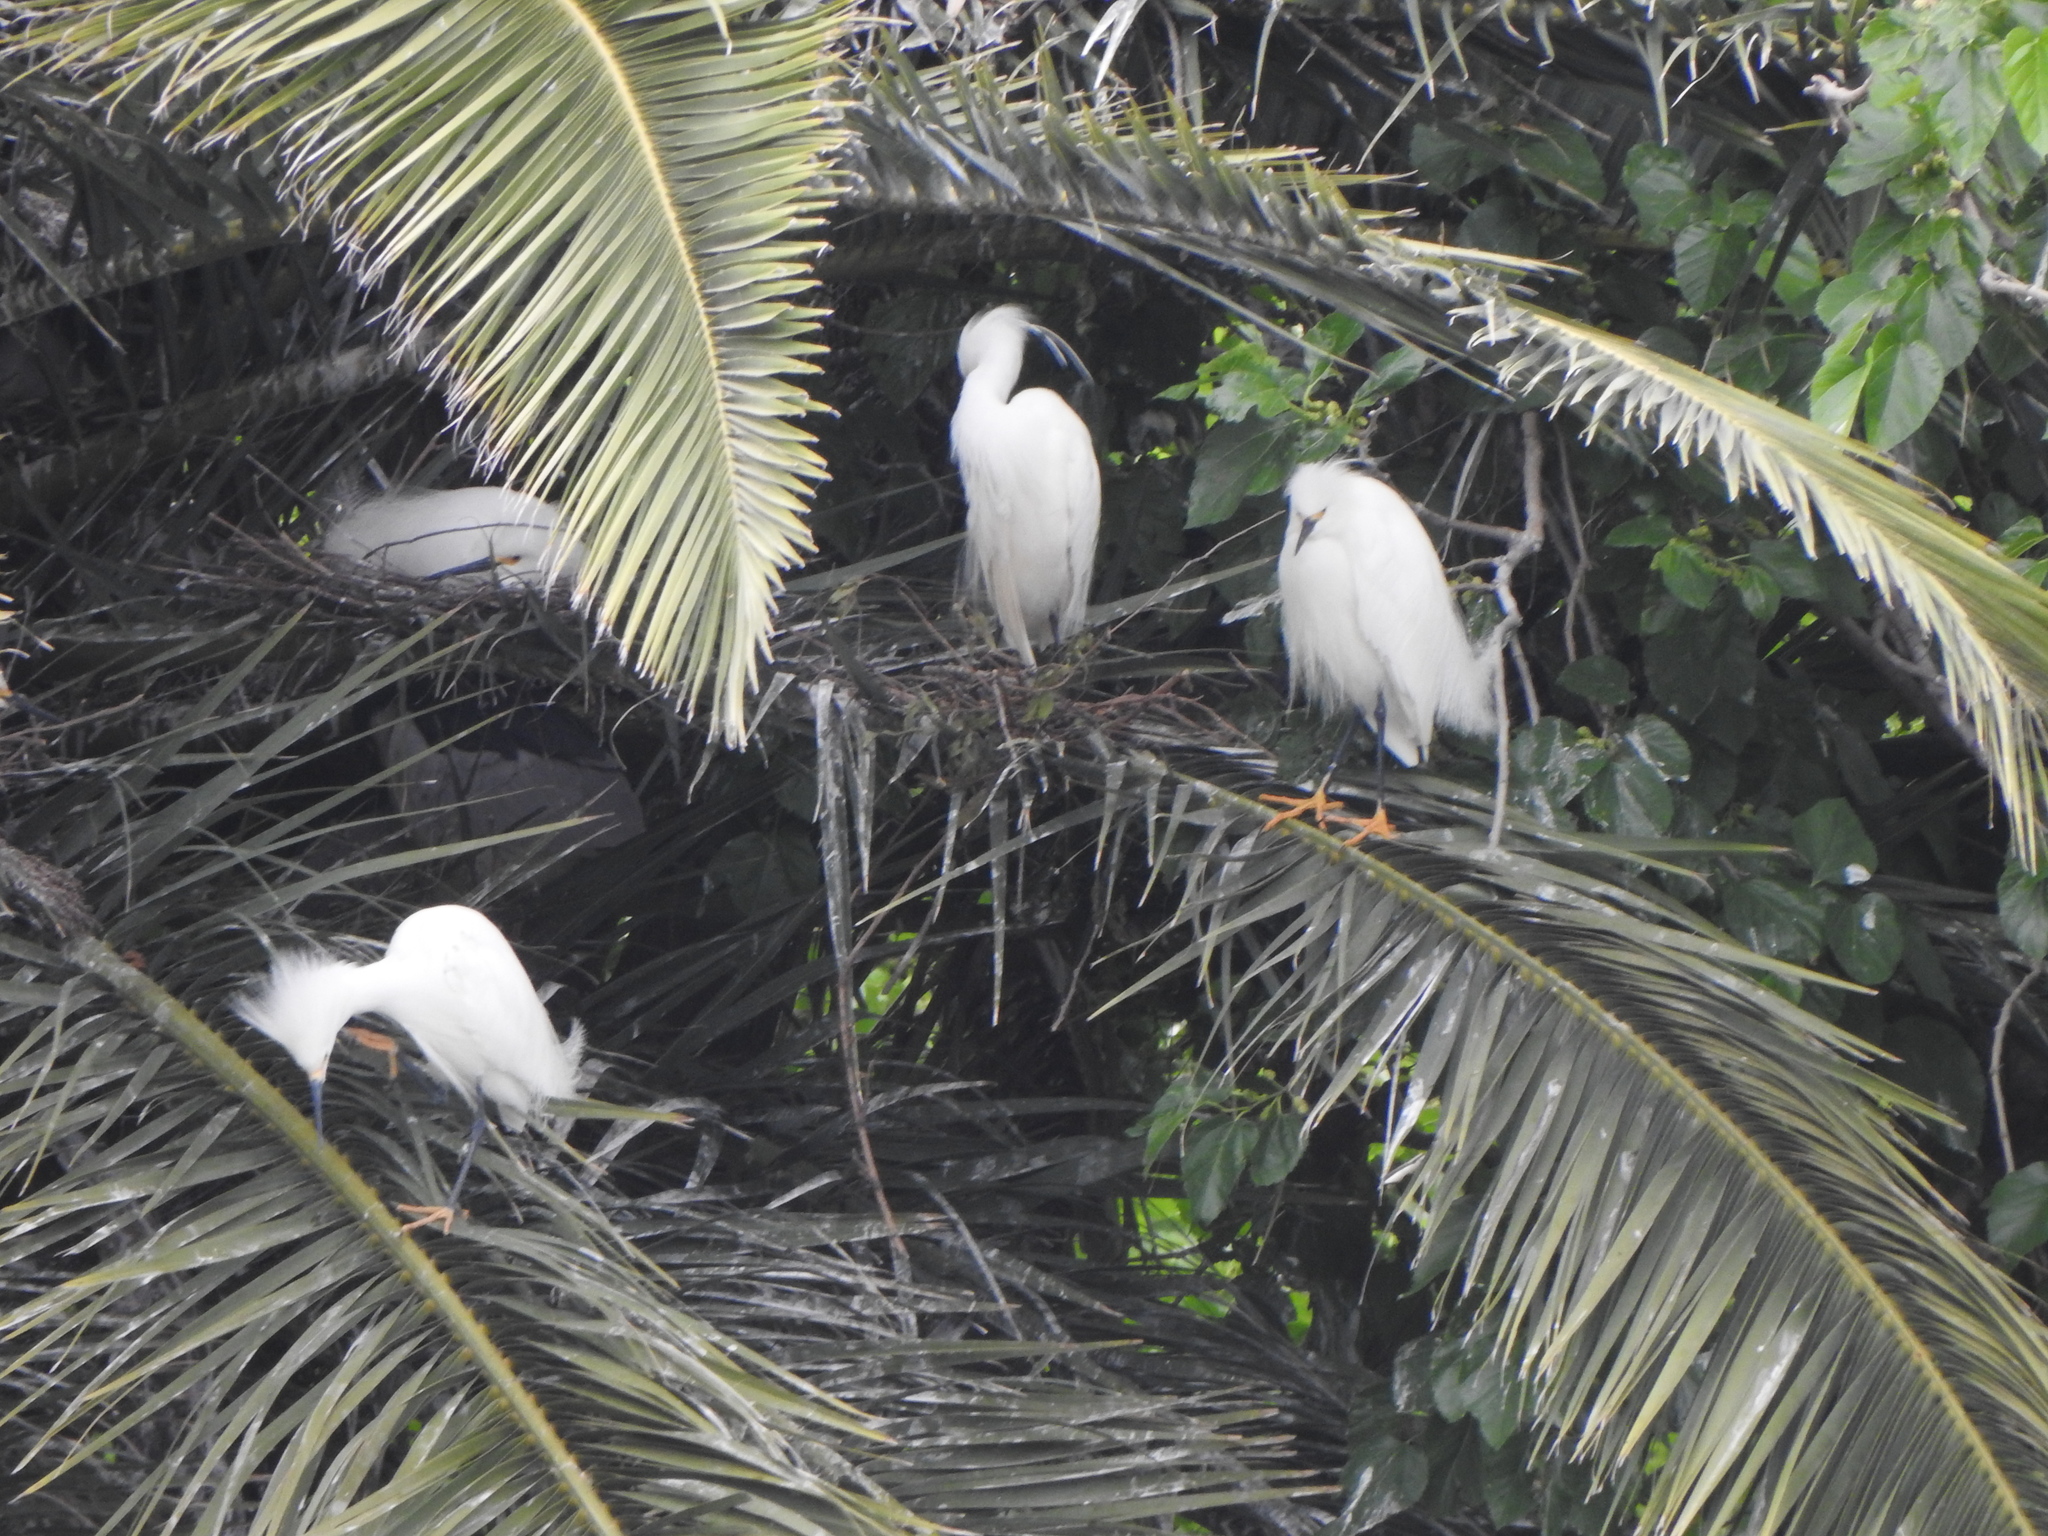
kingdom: Animalia
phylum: Chordata
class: Aves
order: Pelecaniformes
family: Ardeidae
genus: Egretta
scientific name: Egretta thula
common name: Snowy egret
